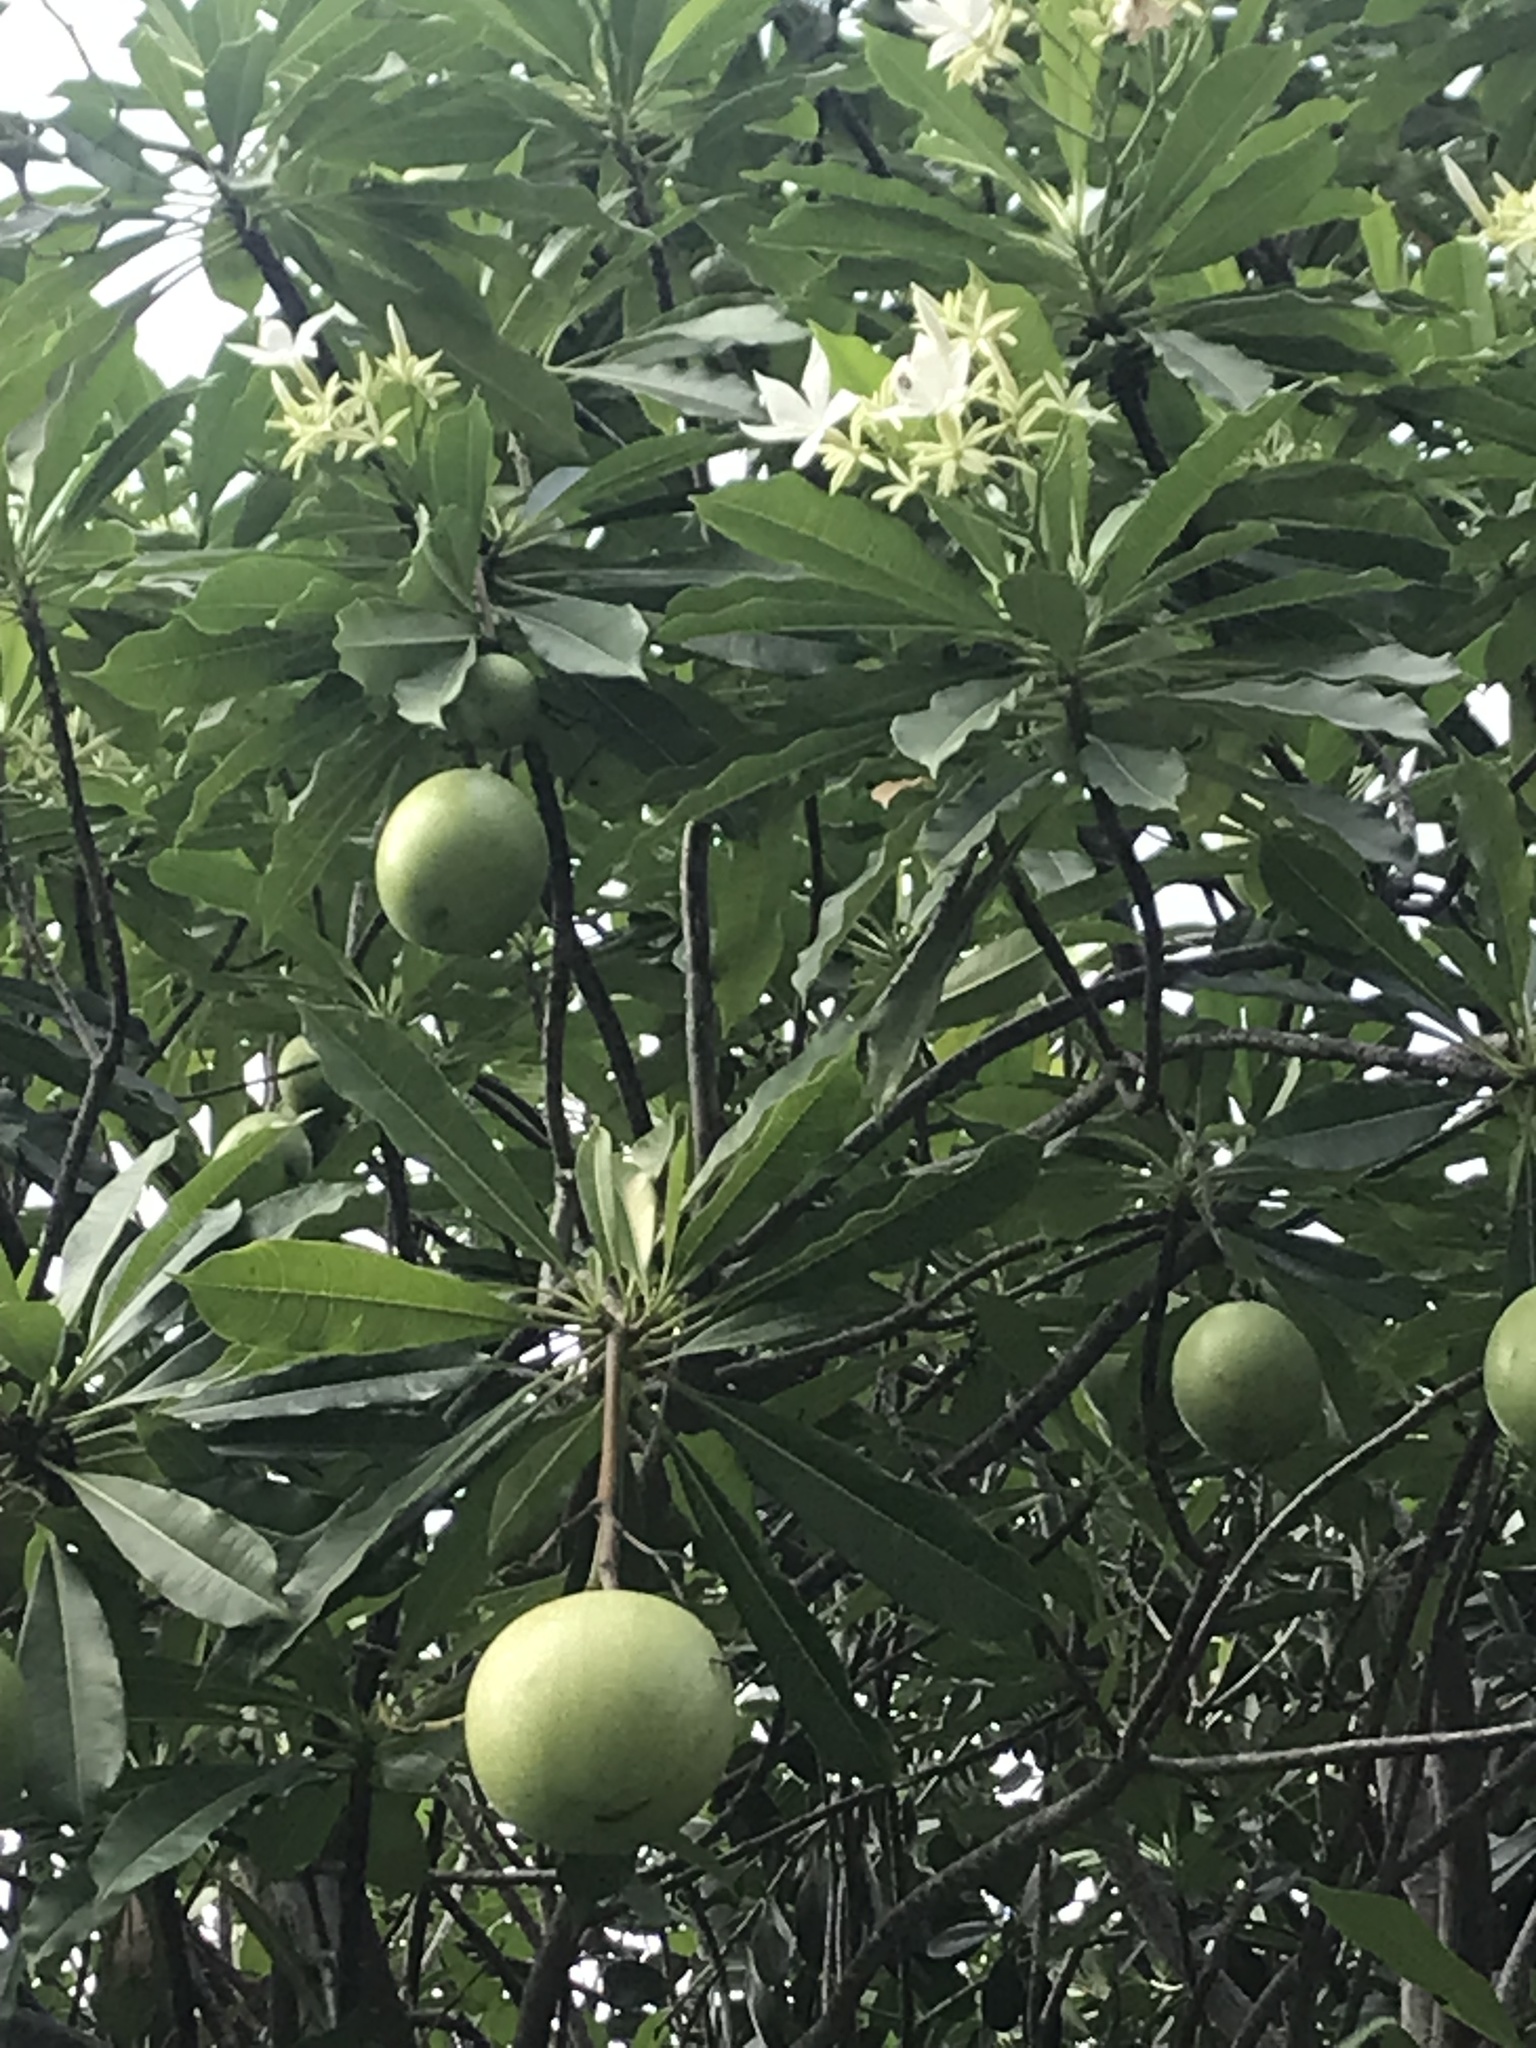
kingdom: Plantae
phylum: Tracheophyta
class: Magnoliopsida
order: Gentianales
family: Apocynaceae
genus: Cerbera
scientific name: Cerbera odollam
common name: Pong-pong
